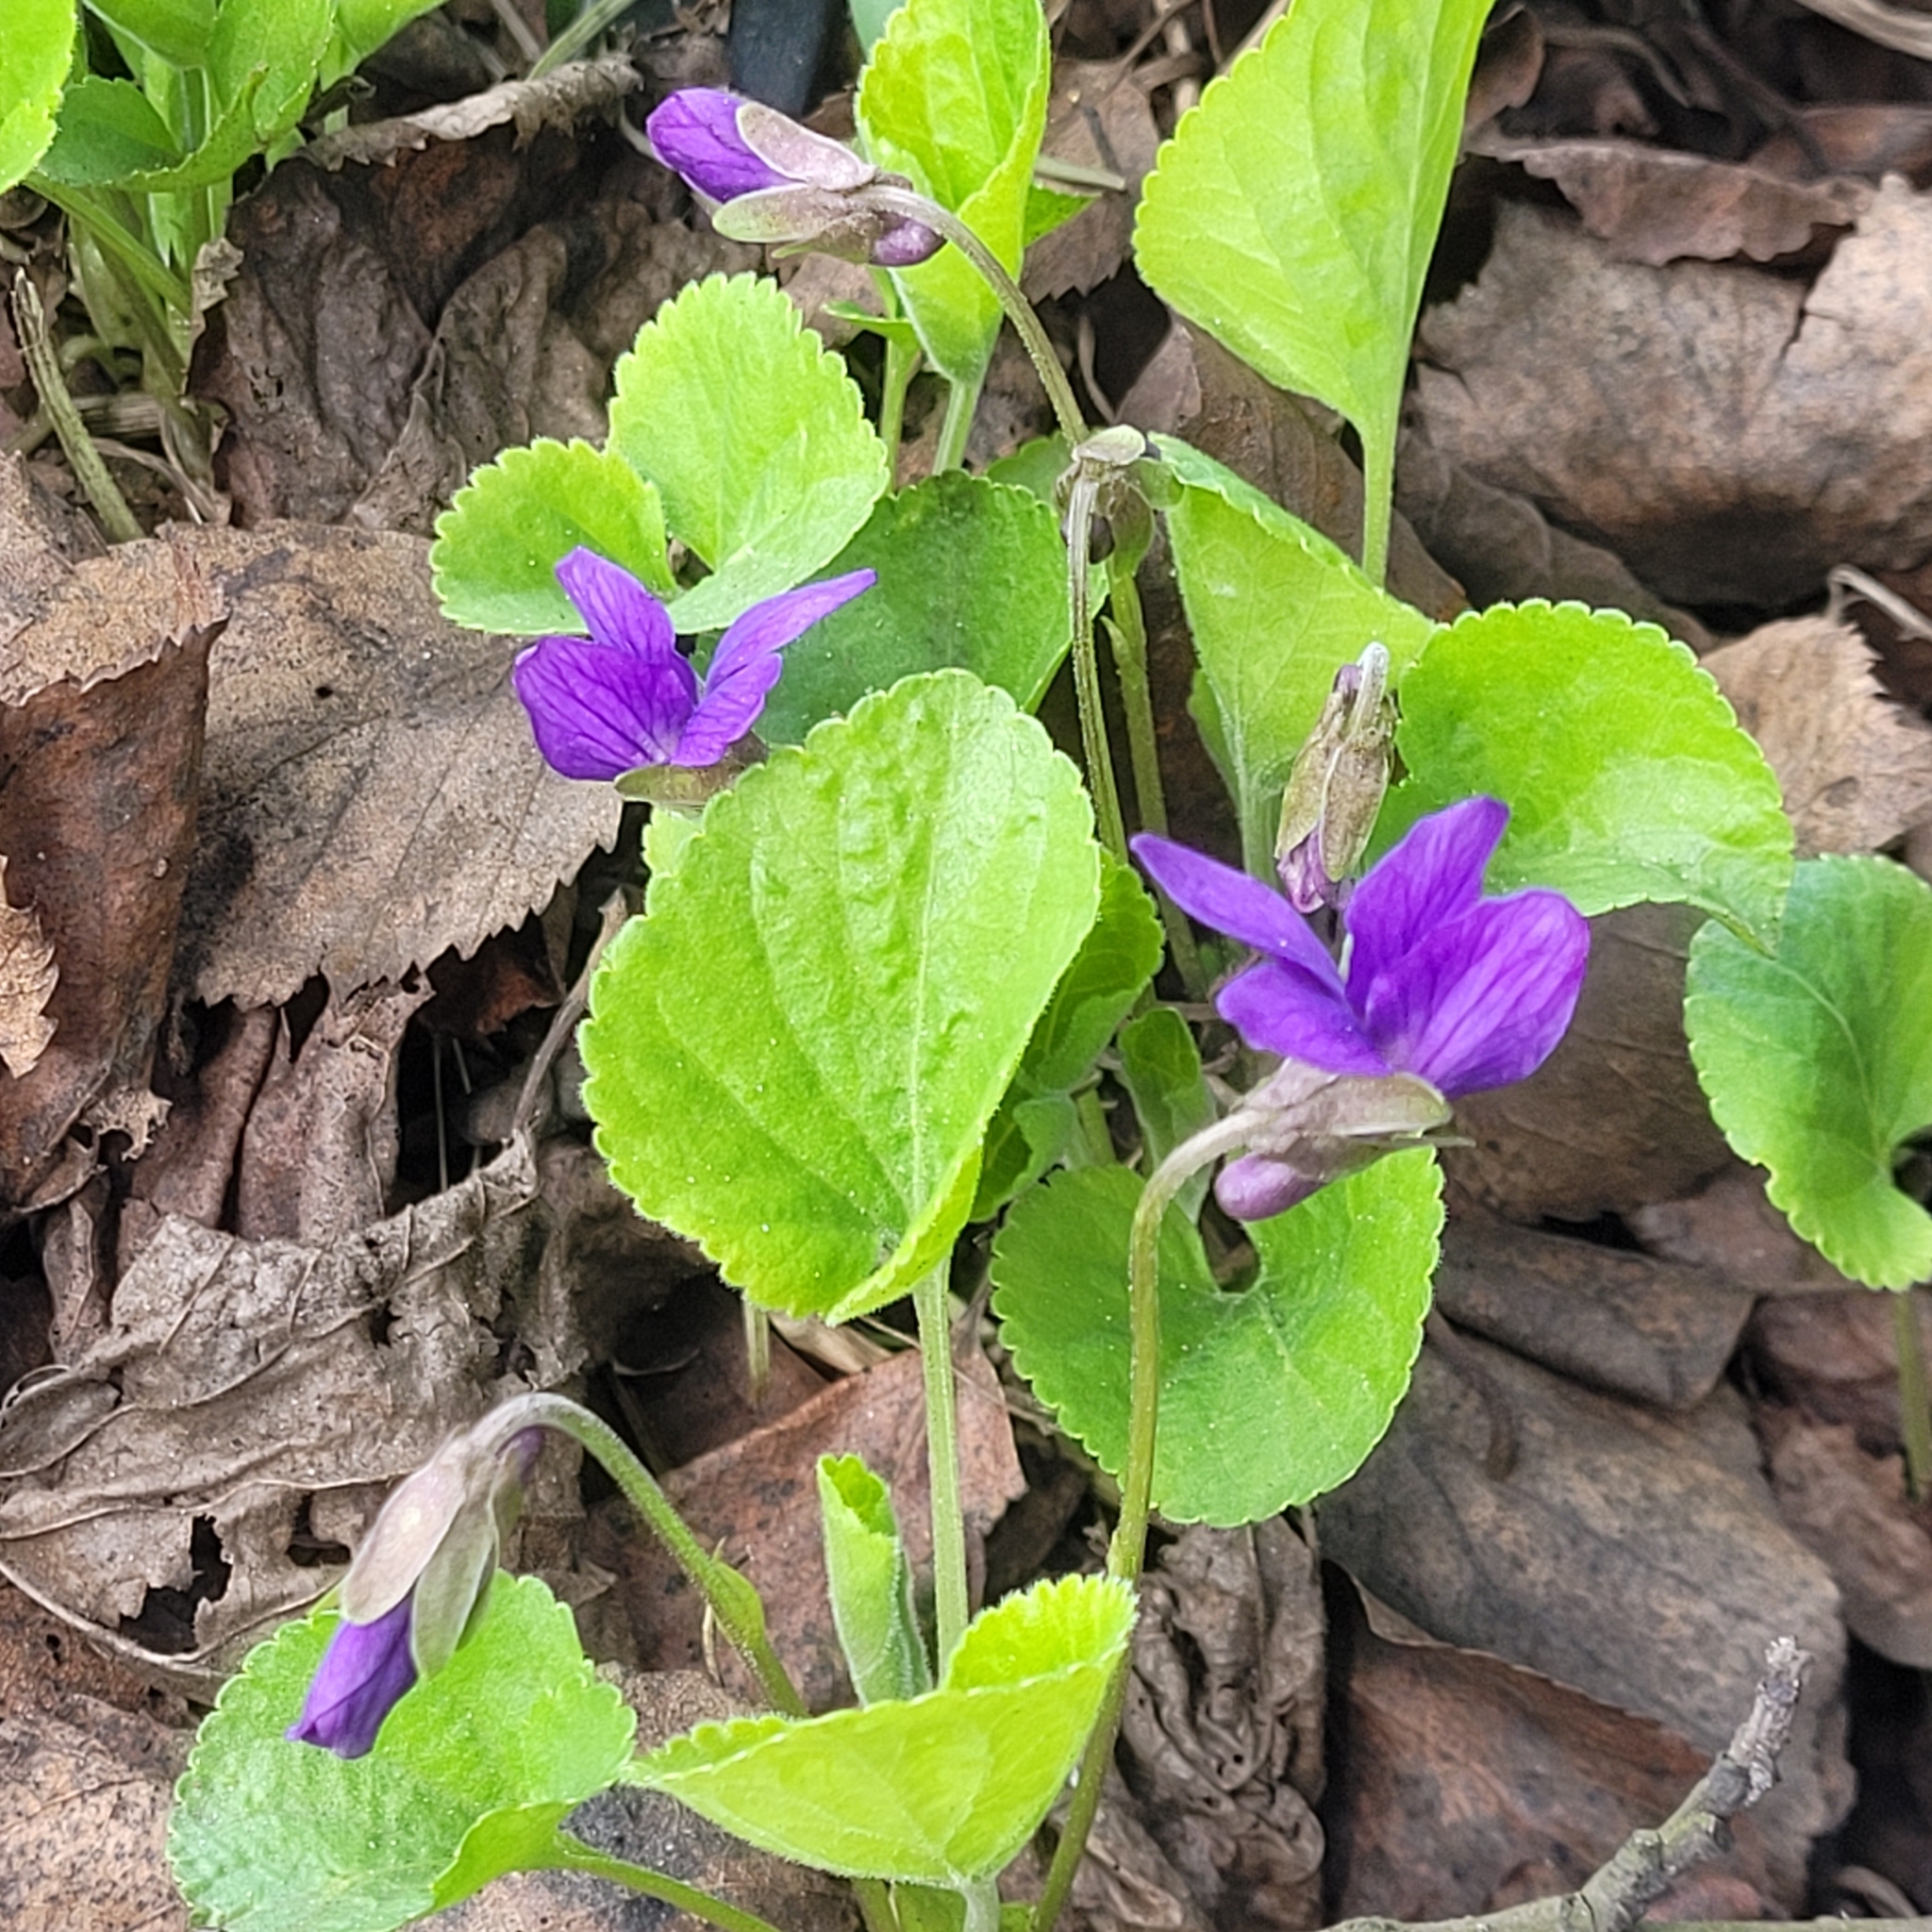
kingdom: Plantae
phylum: Tracheophyta
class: Magnoliopsida
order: Malpighiales
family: Violaceae
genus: Viola
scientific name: Viola odorata
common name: Sweet violet
